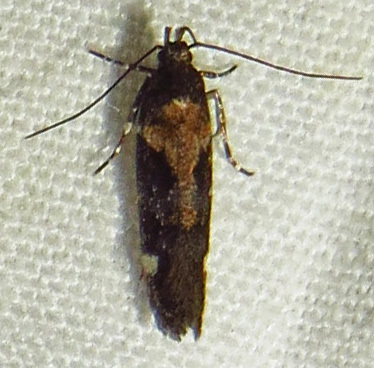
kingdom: Animalia
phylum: Arthropoda
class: Insecta
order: Lepidoptera
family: Gelechiidae
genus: Stegasta
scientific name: Stegasta bosqueella
